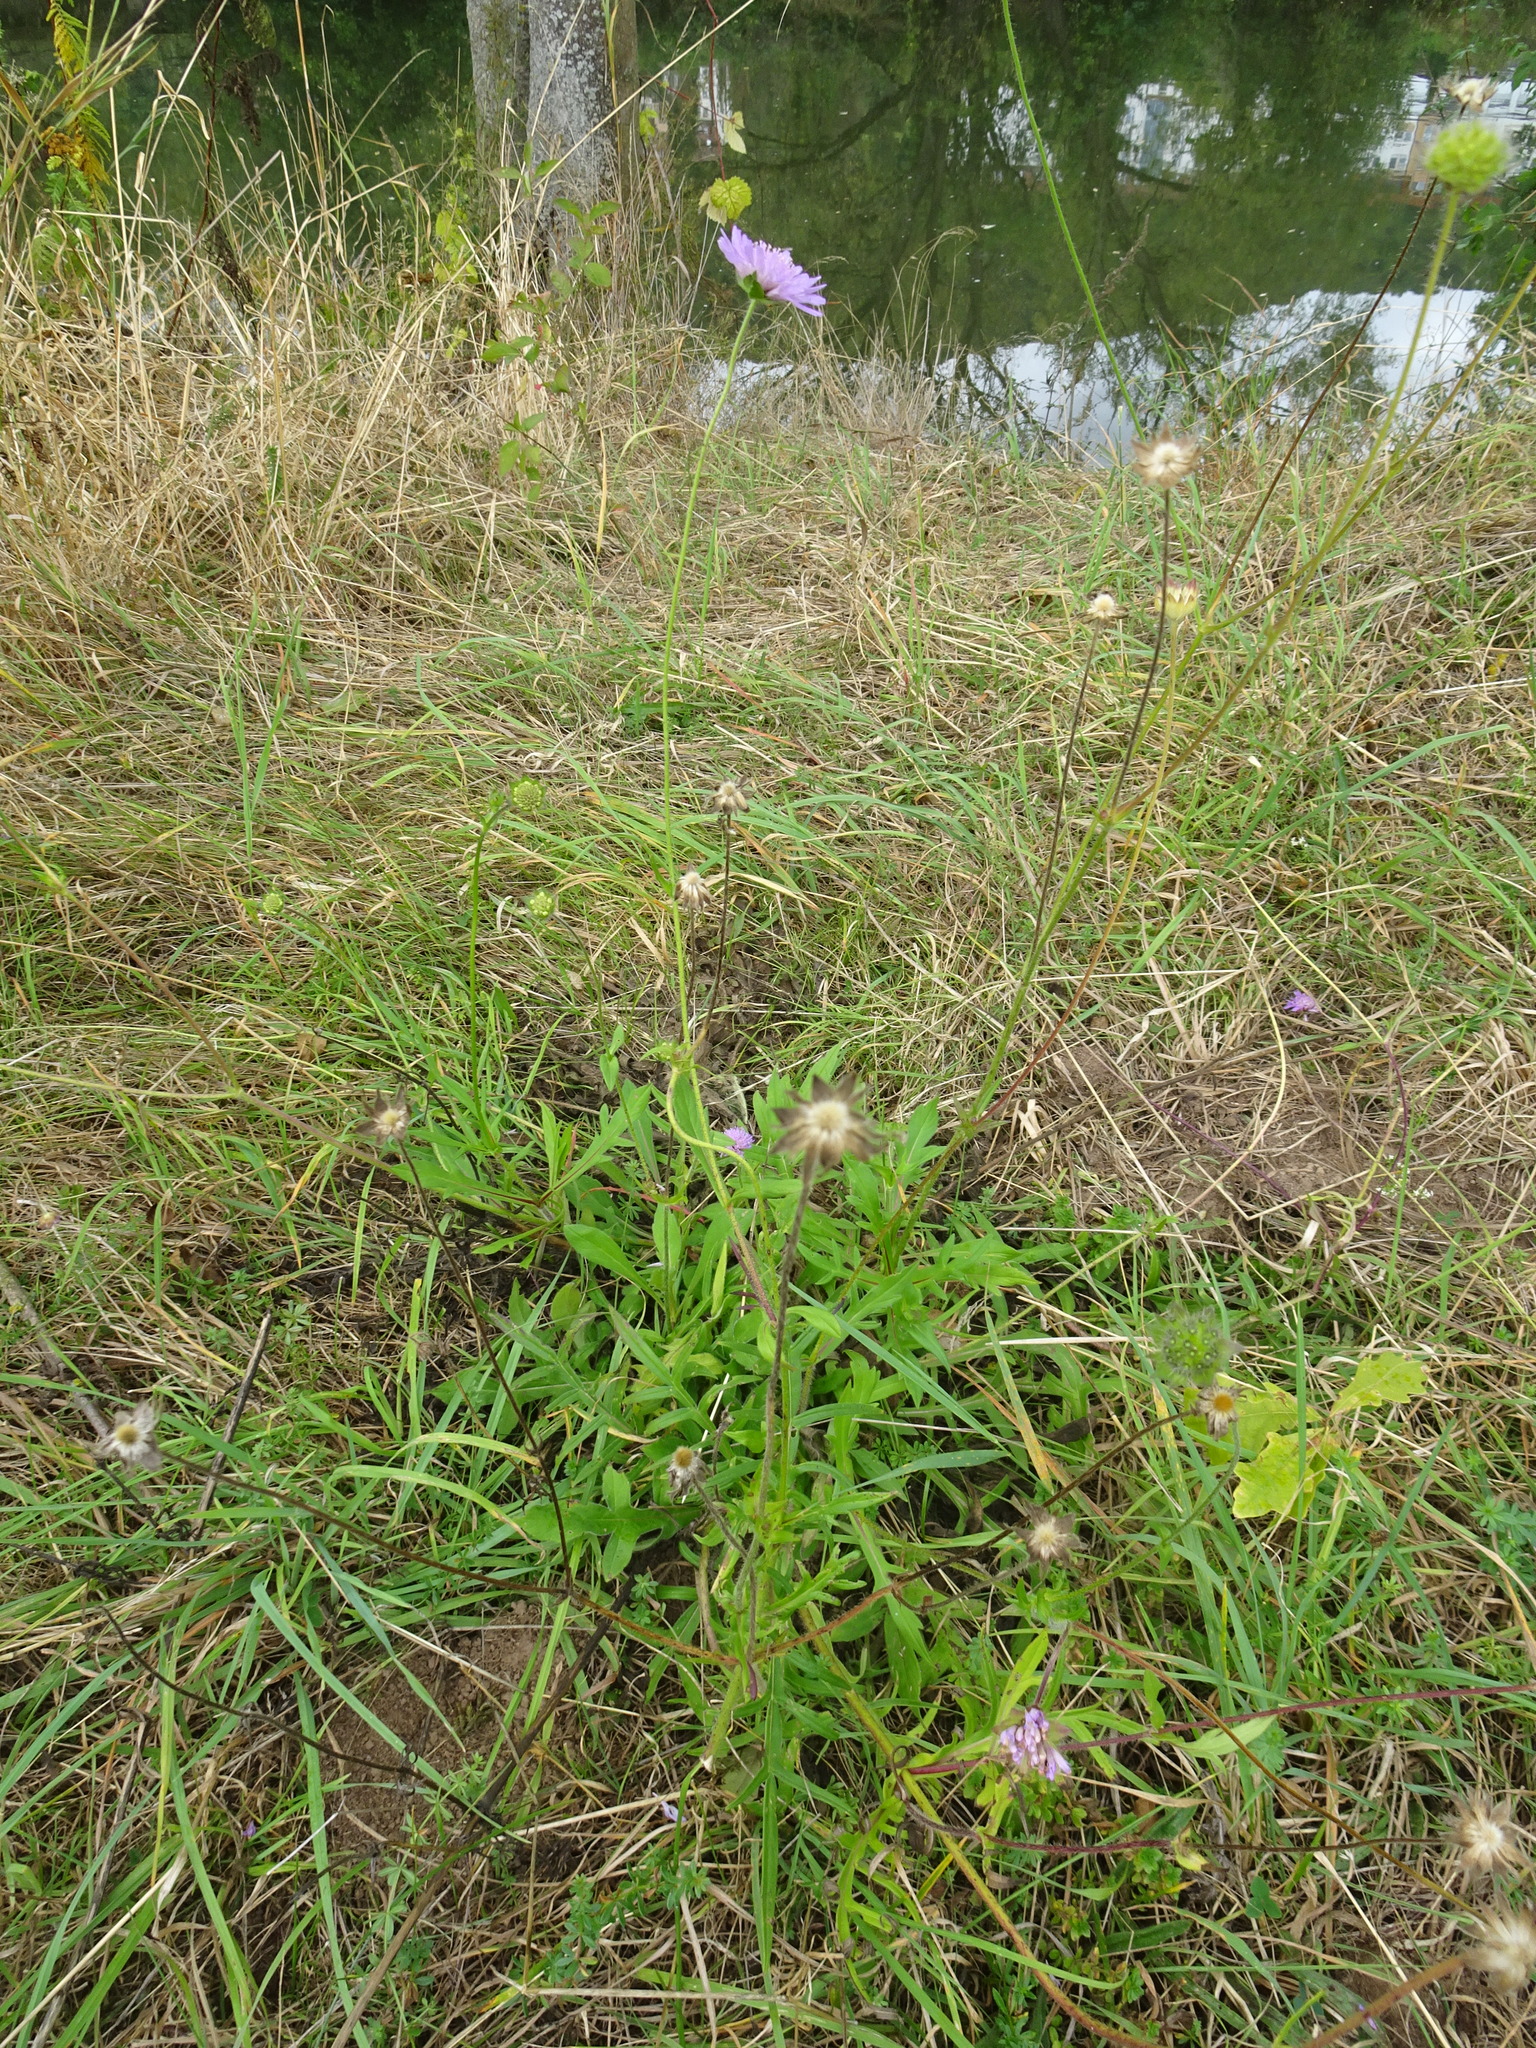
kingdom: Plantae
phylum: Tracheophyta
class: Magnoliopsida
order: Dipsacales
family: Caprifoliaceae
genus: Knautia
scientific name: Knautia arvensis
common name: Field scabiosa
